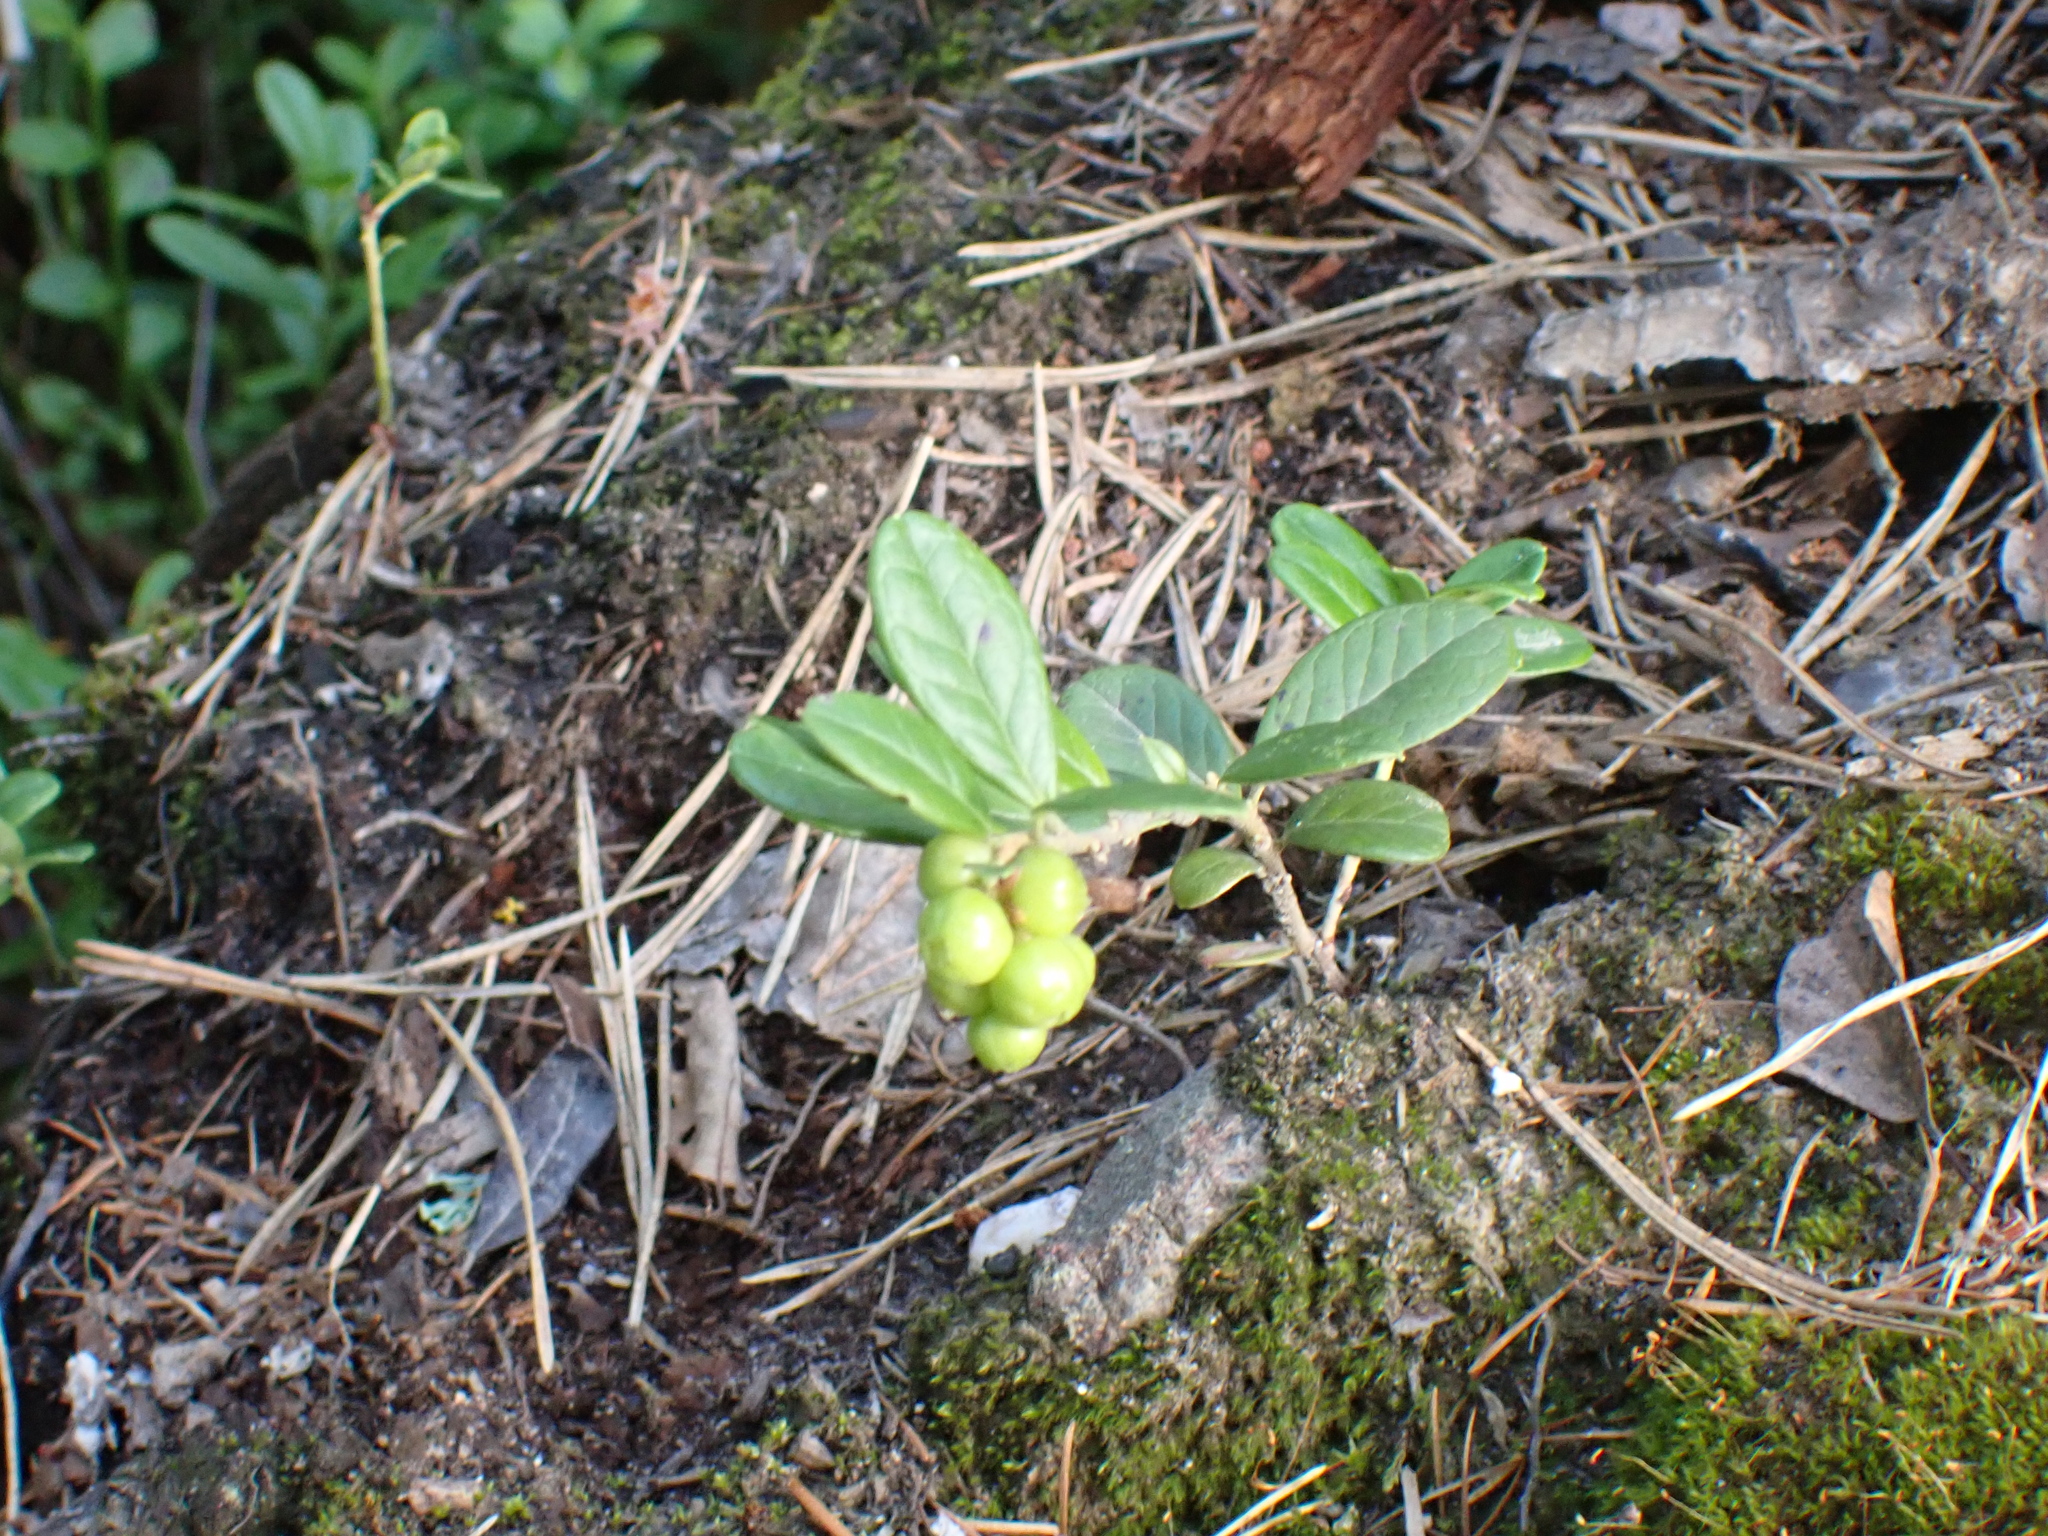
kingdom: Plantae
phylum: Tracheophyta
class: Magnoliopsida
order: Ericales
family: Ericaceae
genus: Vaccinium
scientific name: Vaccinium vitis-idaea
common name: Cowberry
